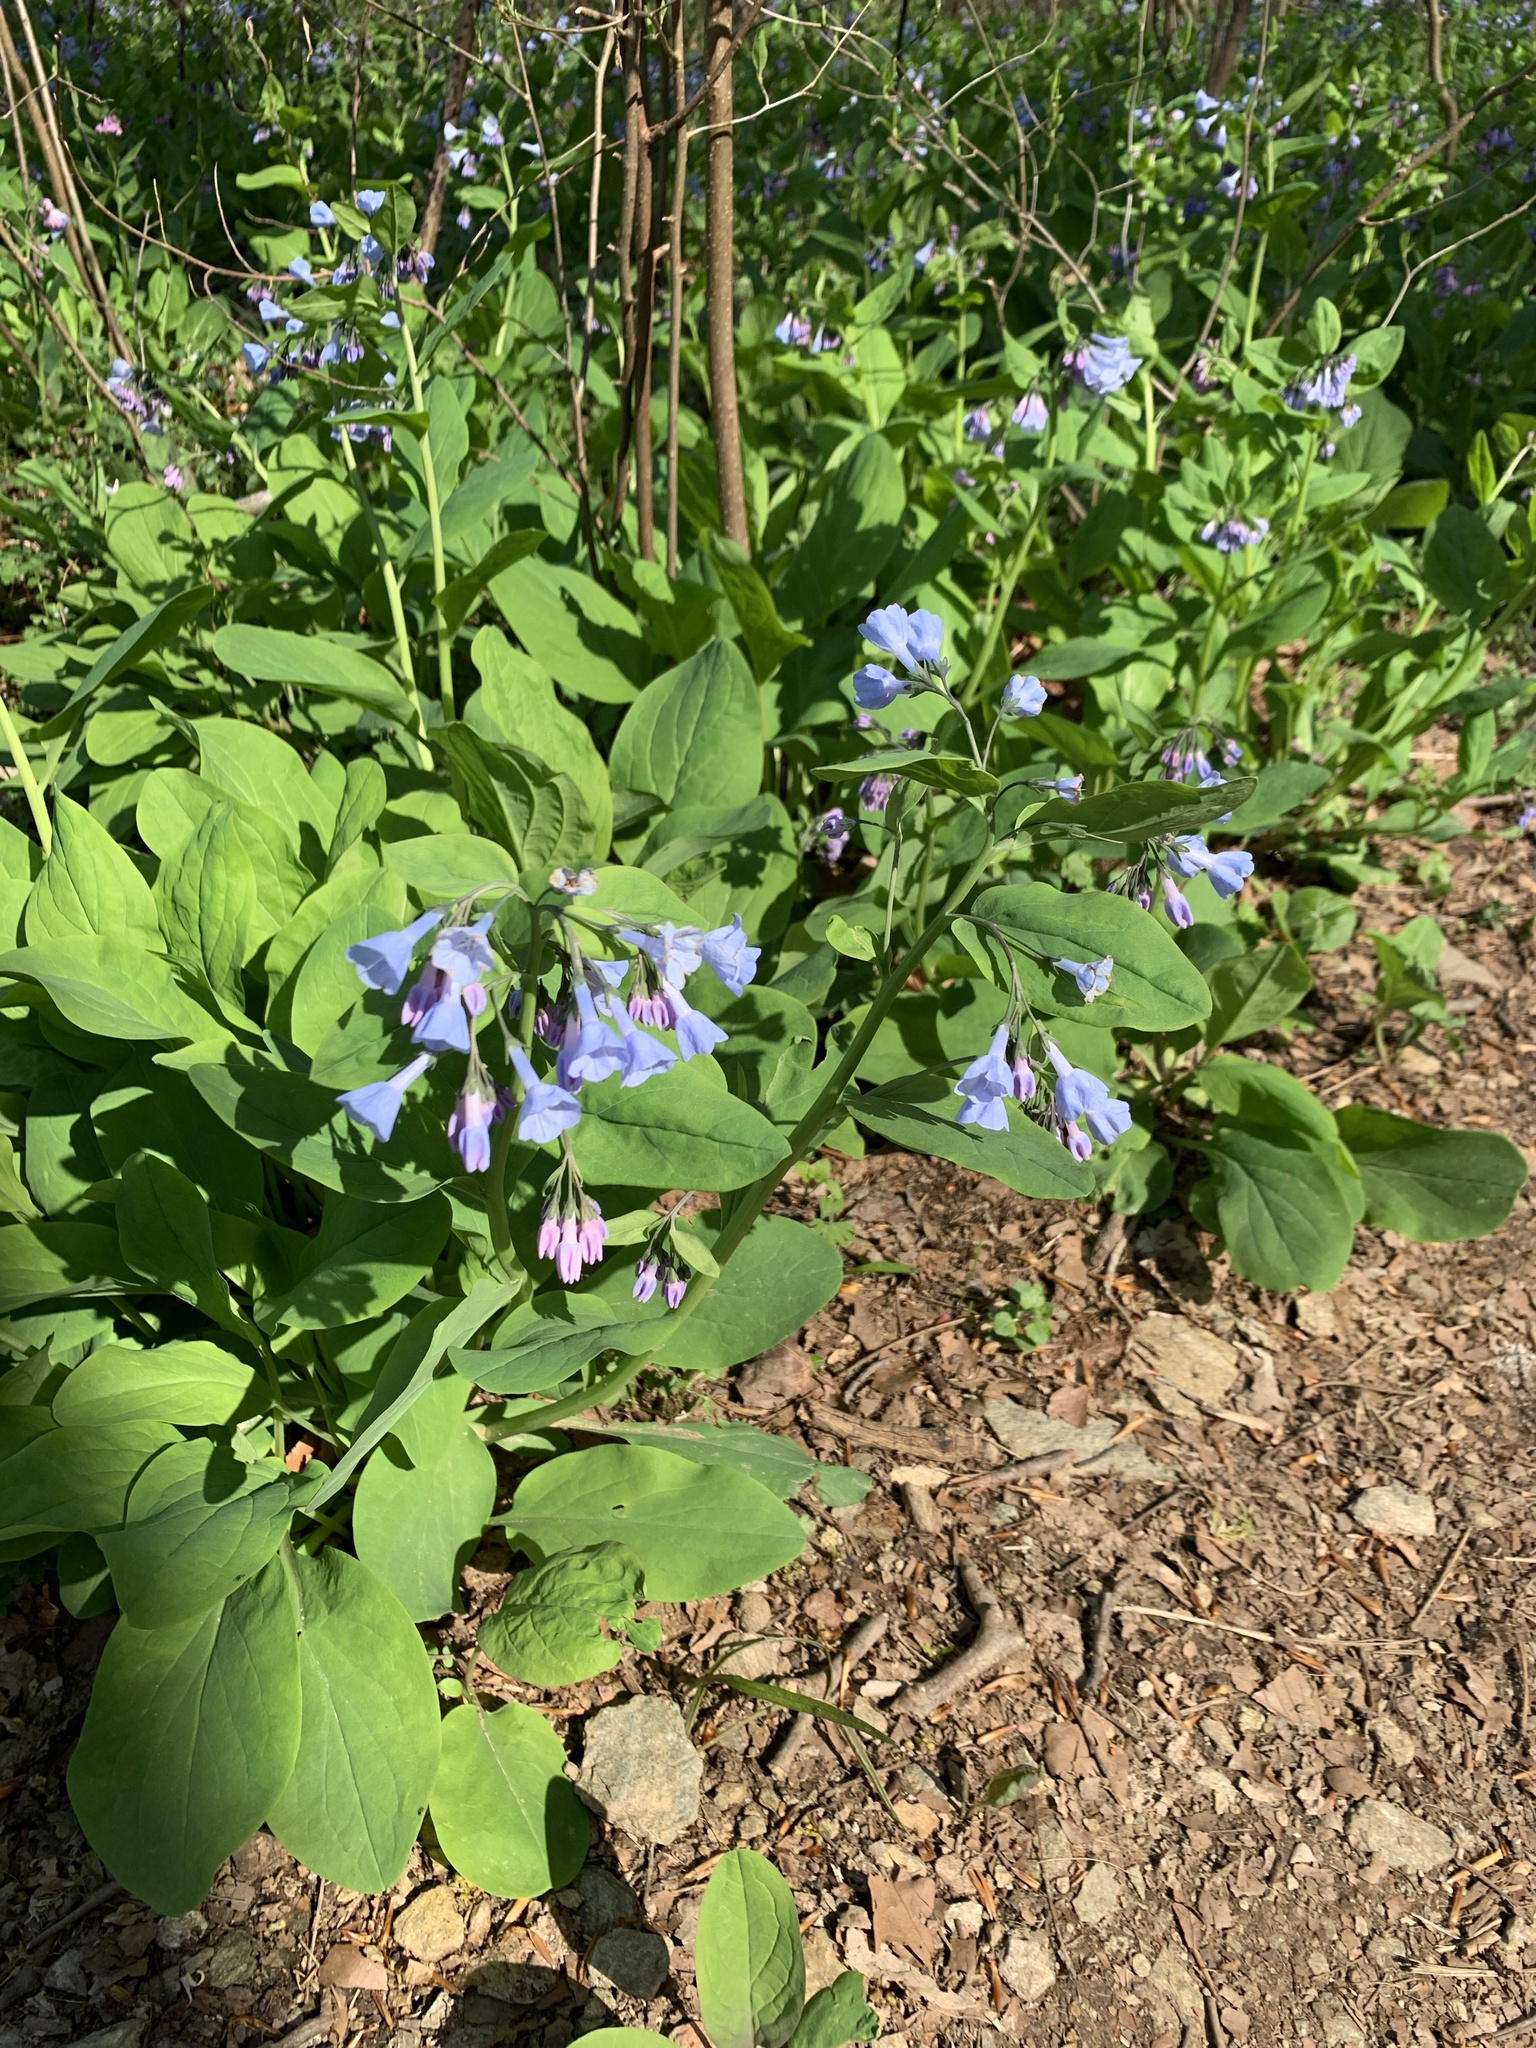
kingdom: Plantae
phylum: Tracheophyta
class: Magnoliopsida
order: Boraginales
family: Boraginaceae
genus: Mertensia
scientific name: Mertensia virginica
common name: Virginia bluebells
